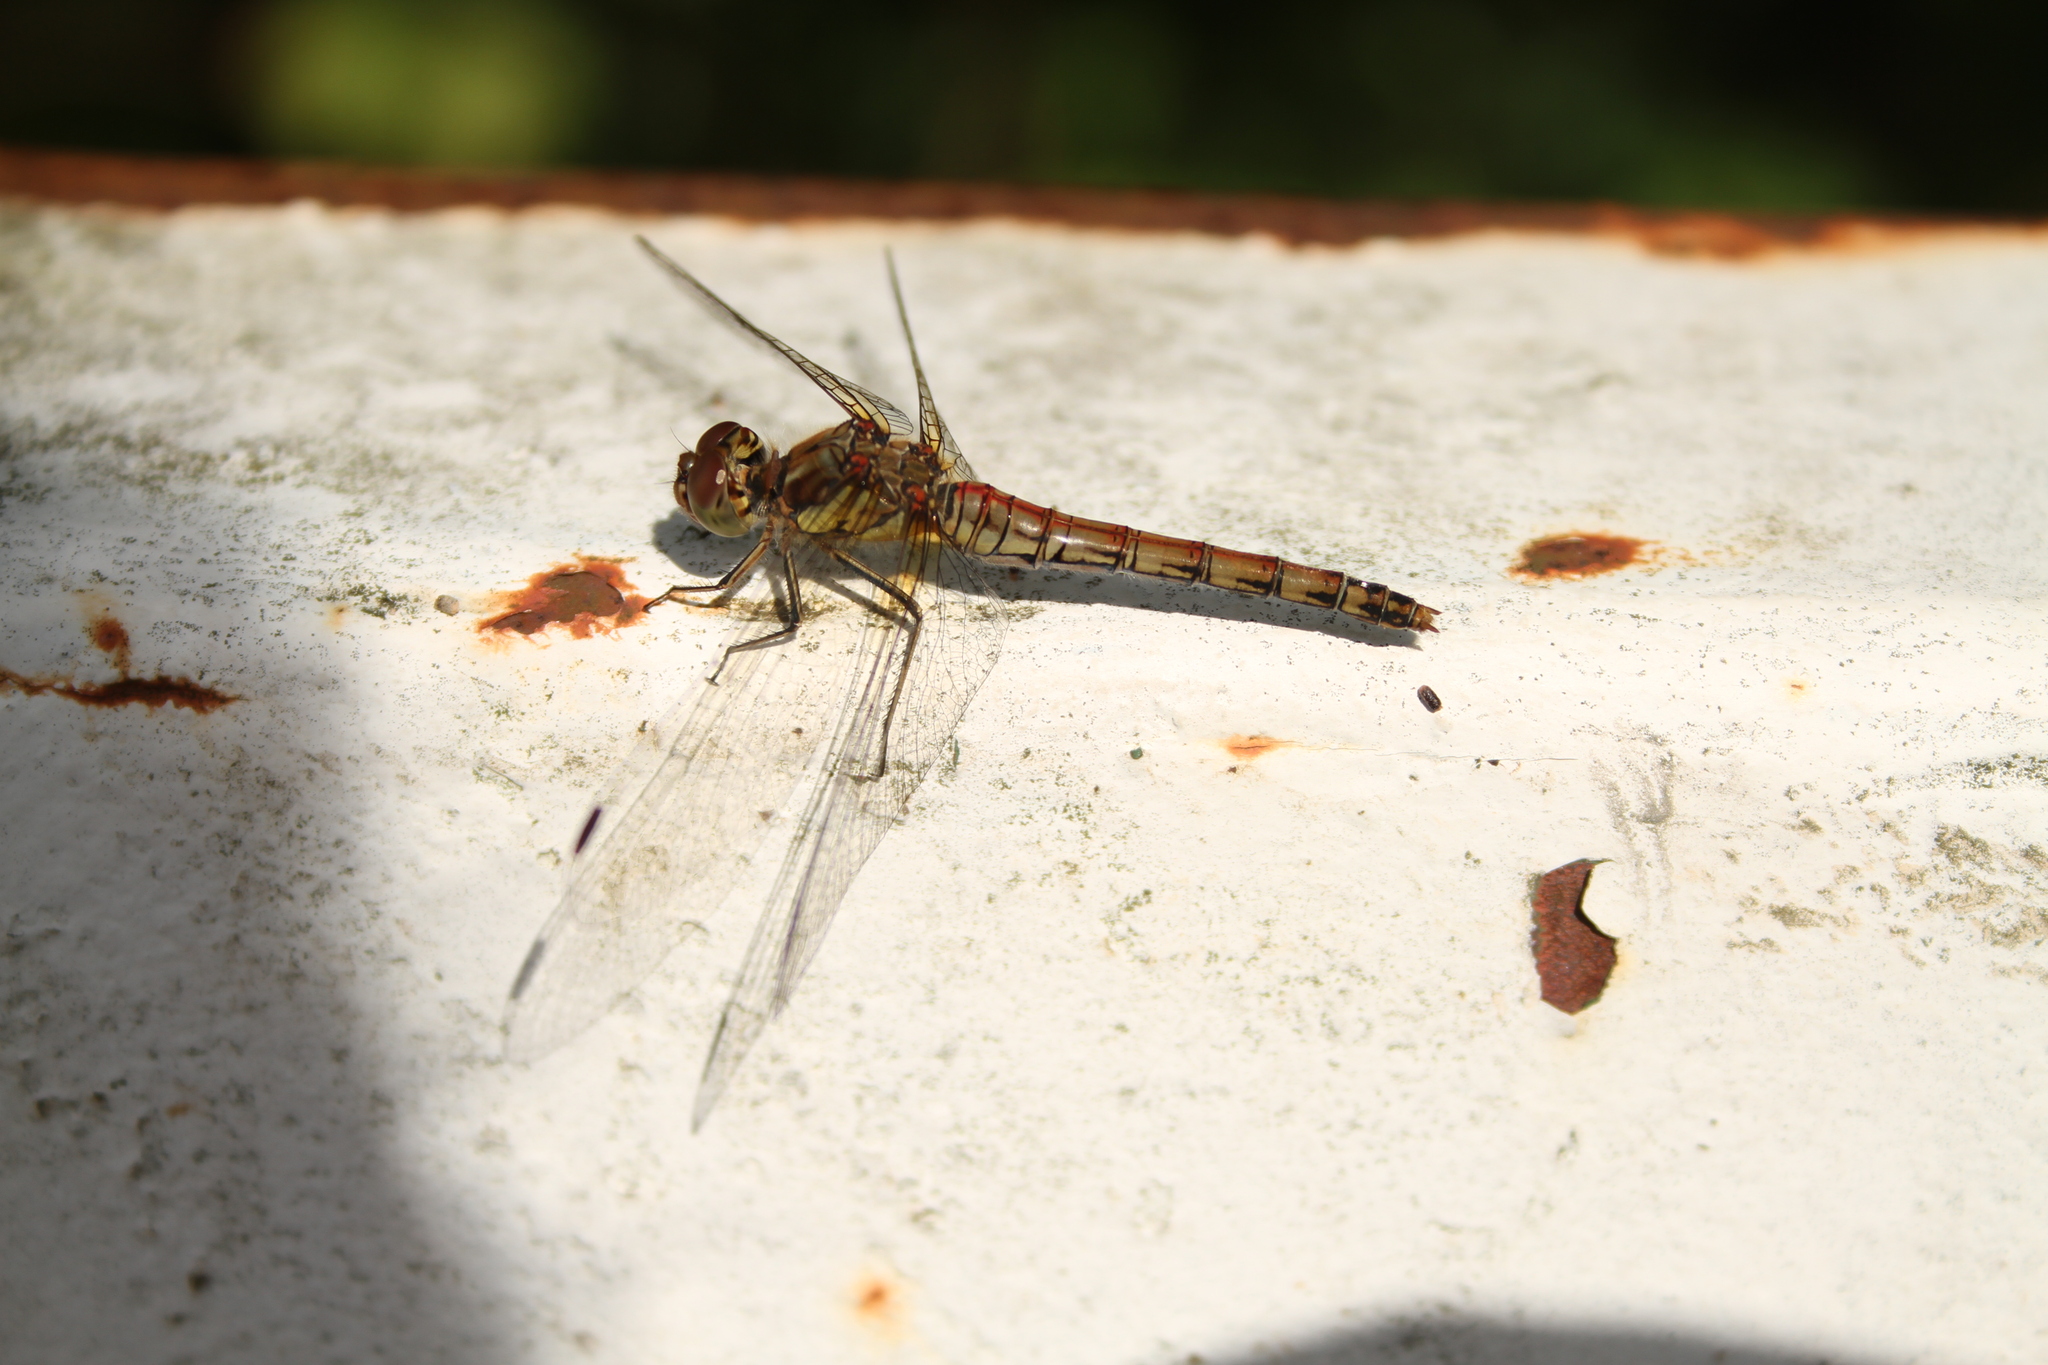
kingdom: Animalia
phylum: Arthropoda
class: Insecta
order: Odonata
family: Libellulidae
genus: Sympetrum
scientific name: Sympetrum striolatum
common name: Common darter
